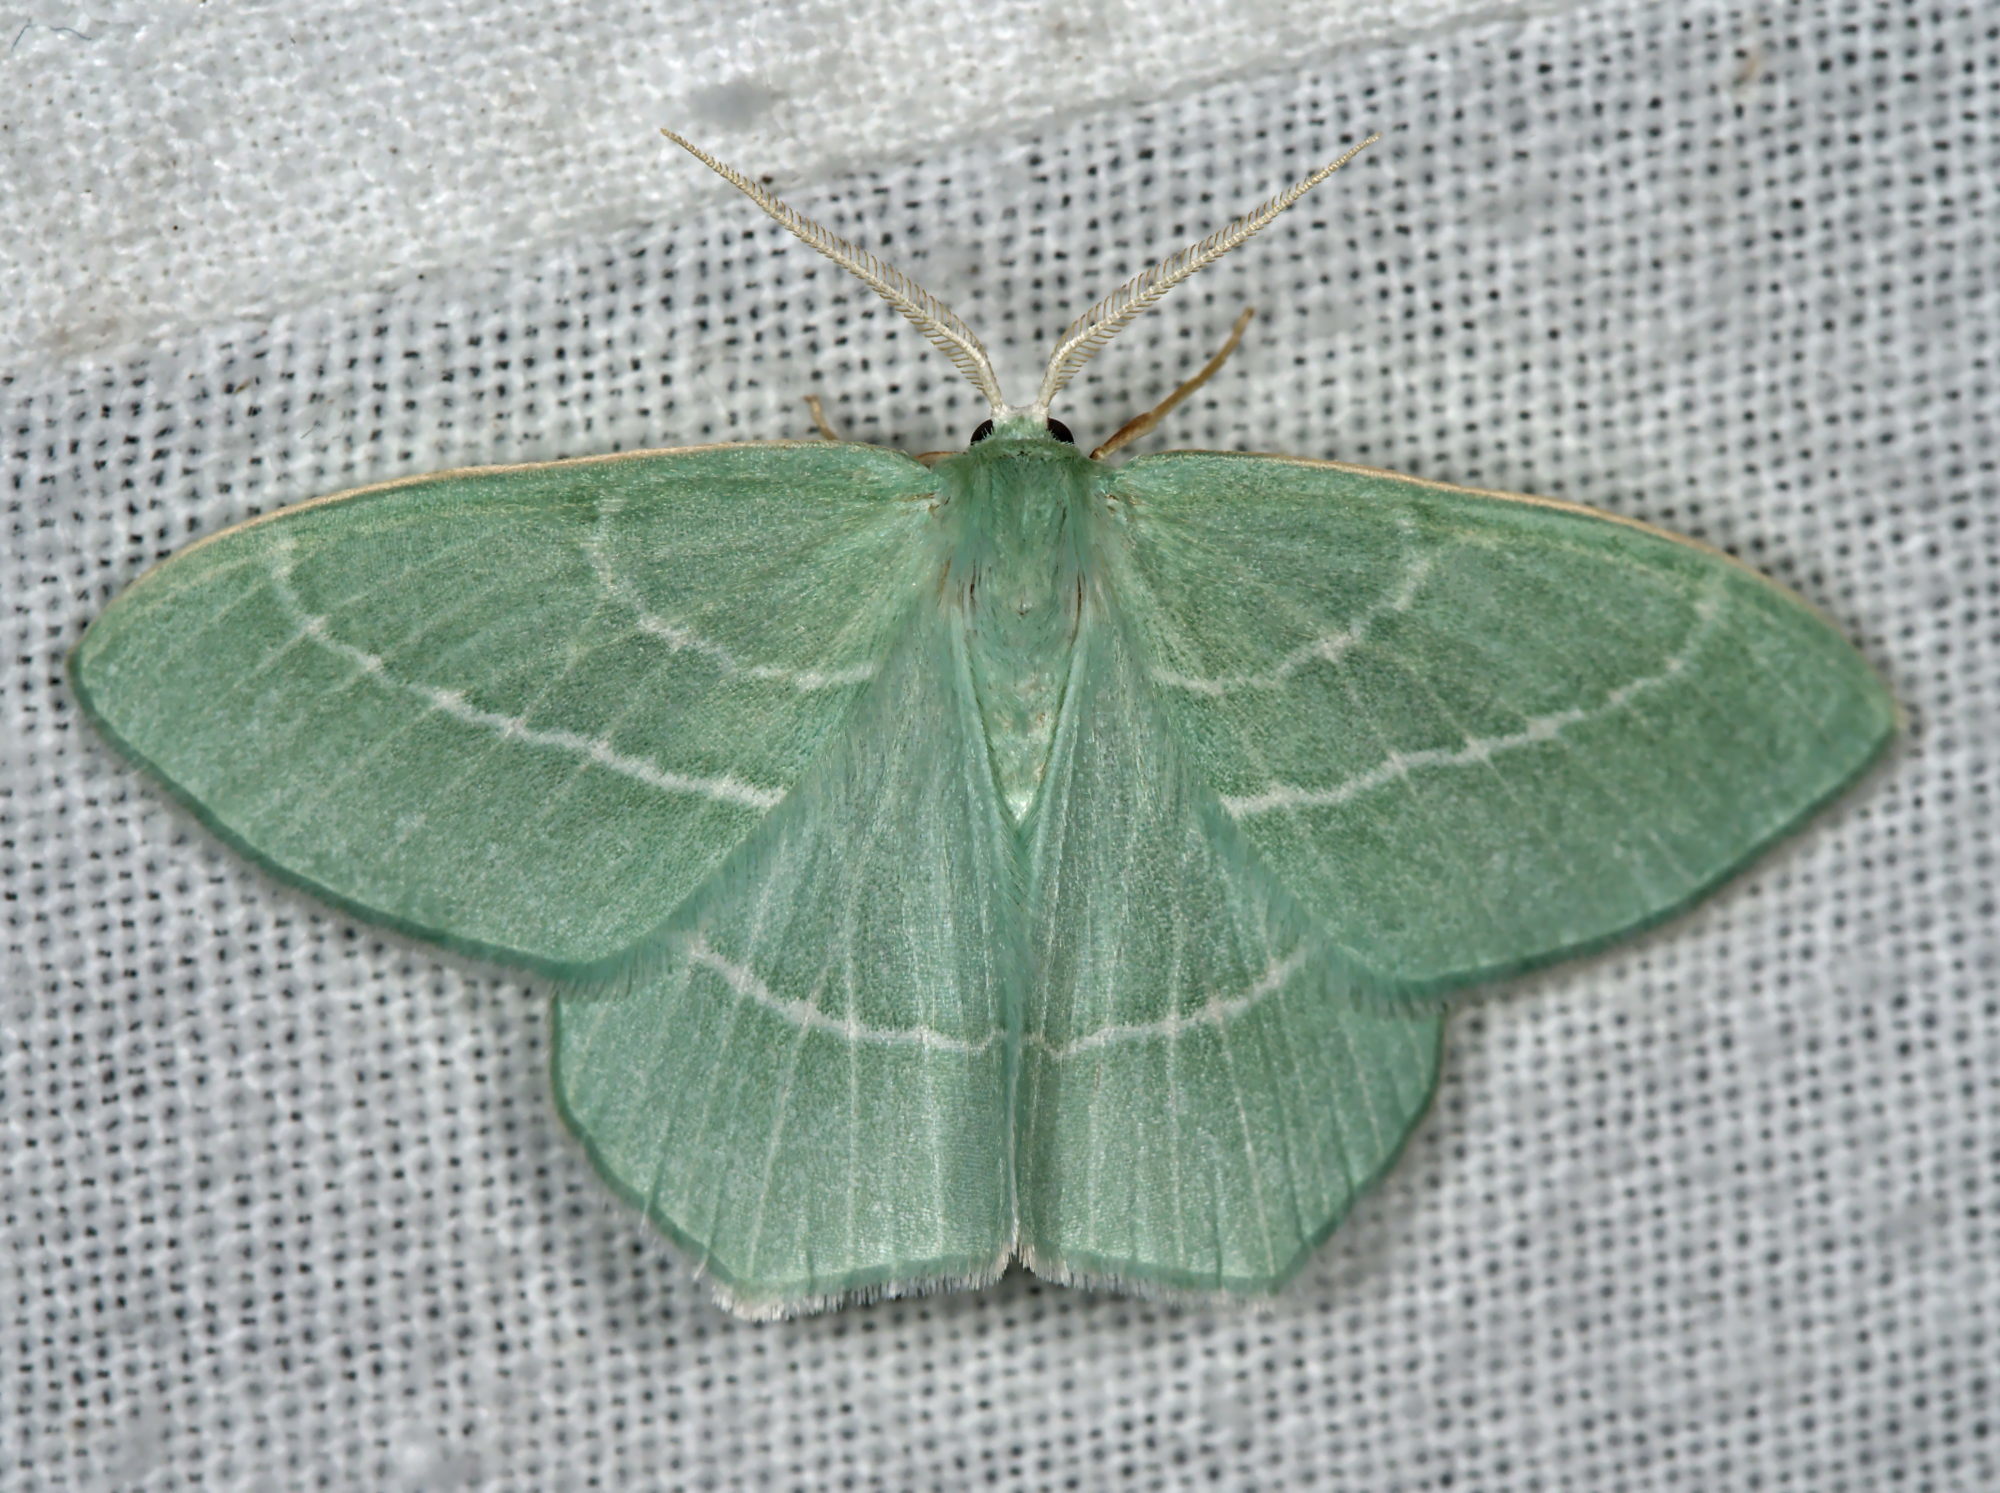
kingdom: Animalia
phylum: Arthropoda
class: Insecta
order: Lepidoptera
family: Geometridae
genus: Hemistola
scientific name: Hemistola chrysoprasaria
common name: Small emerald
